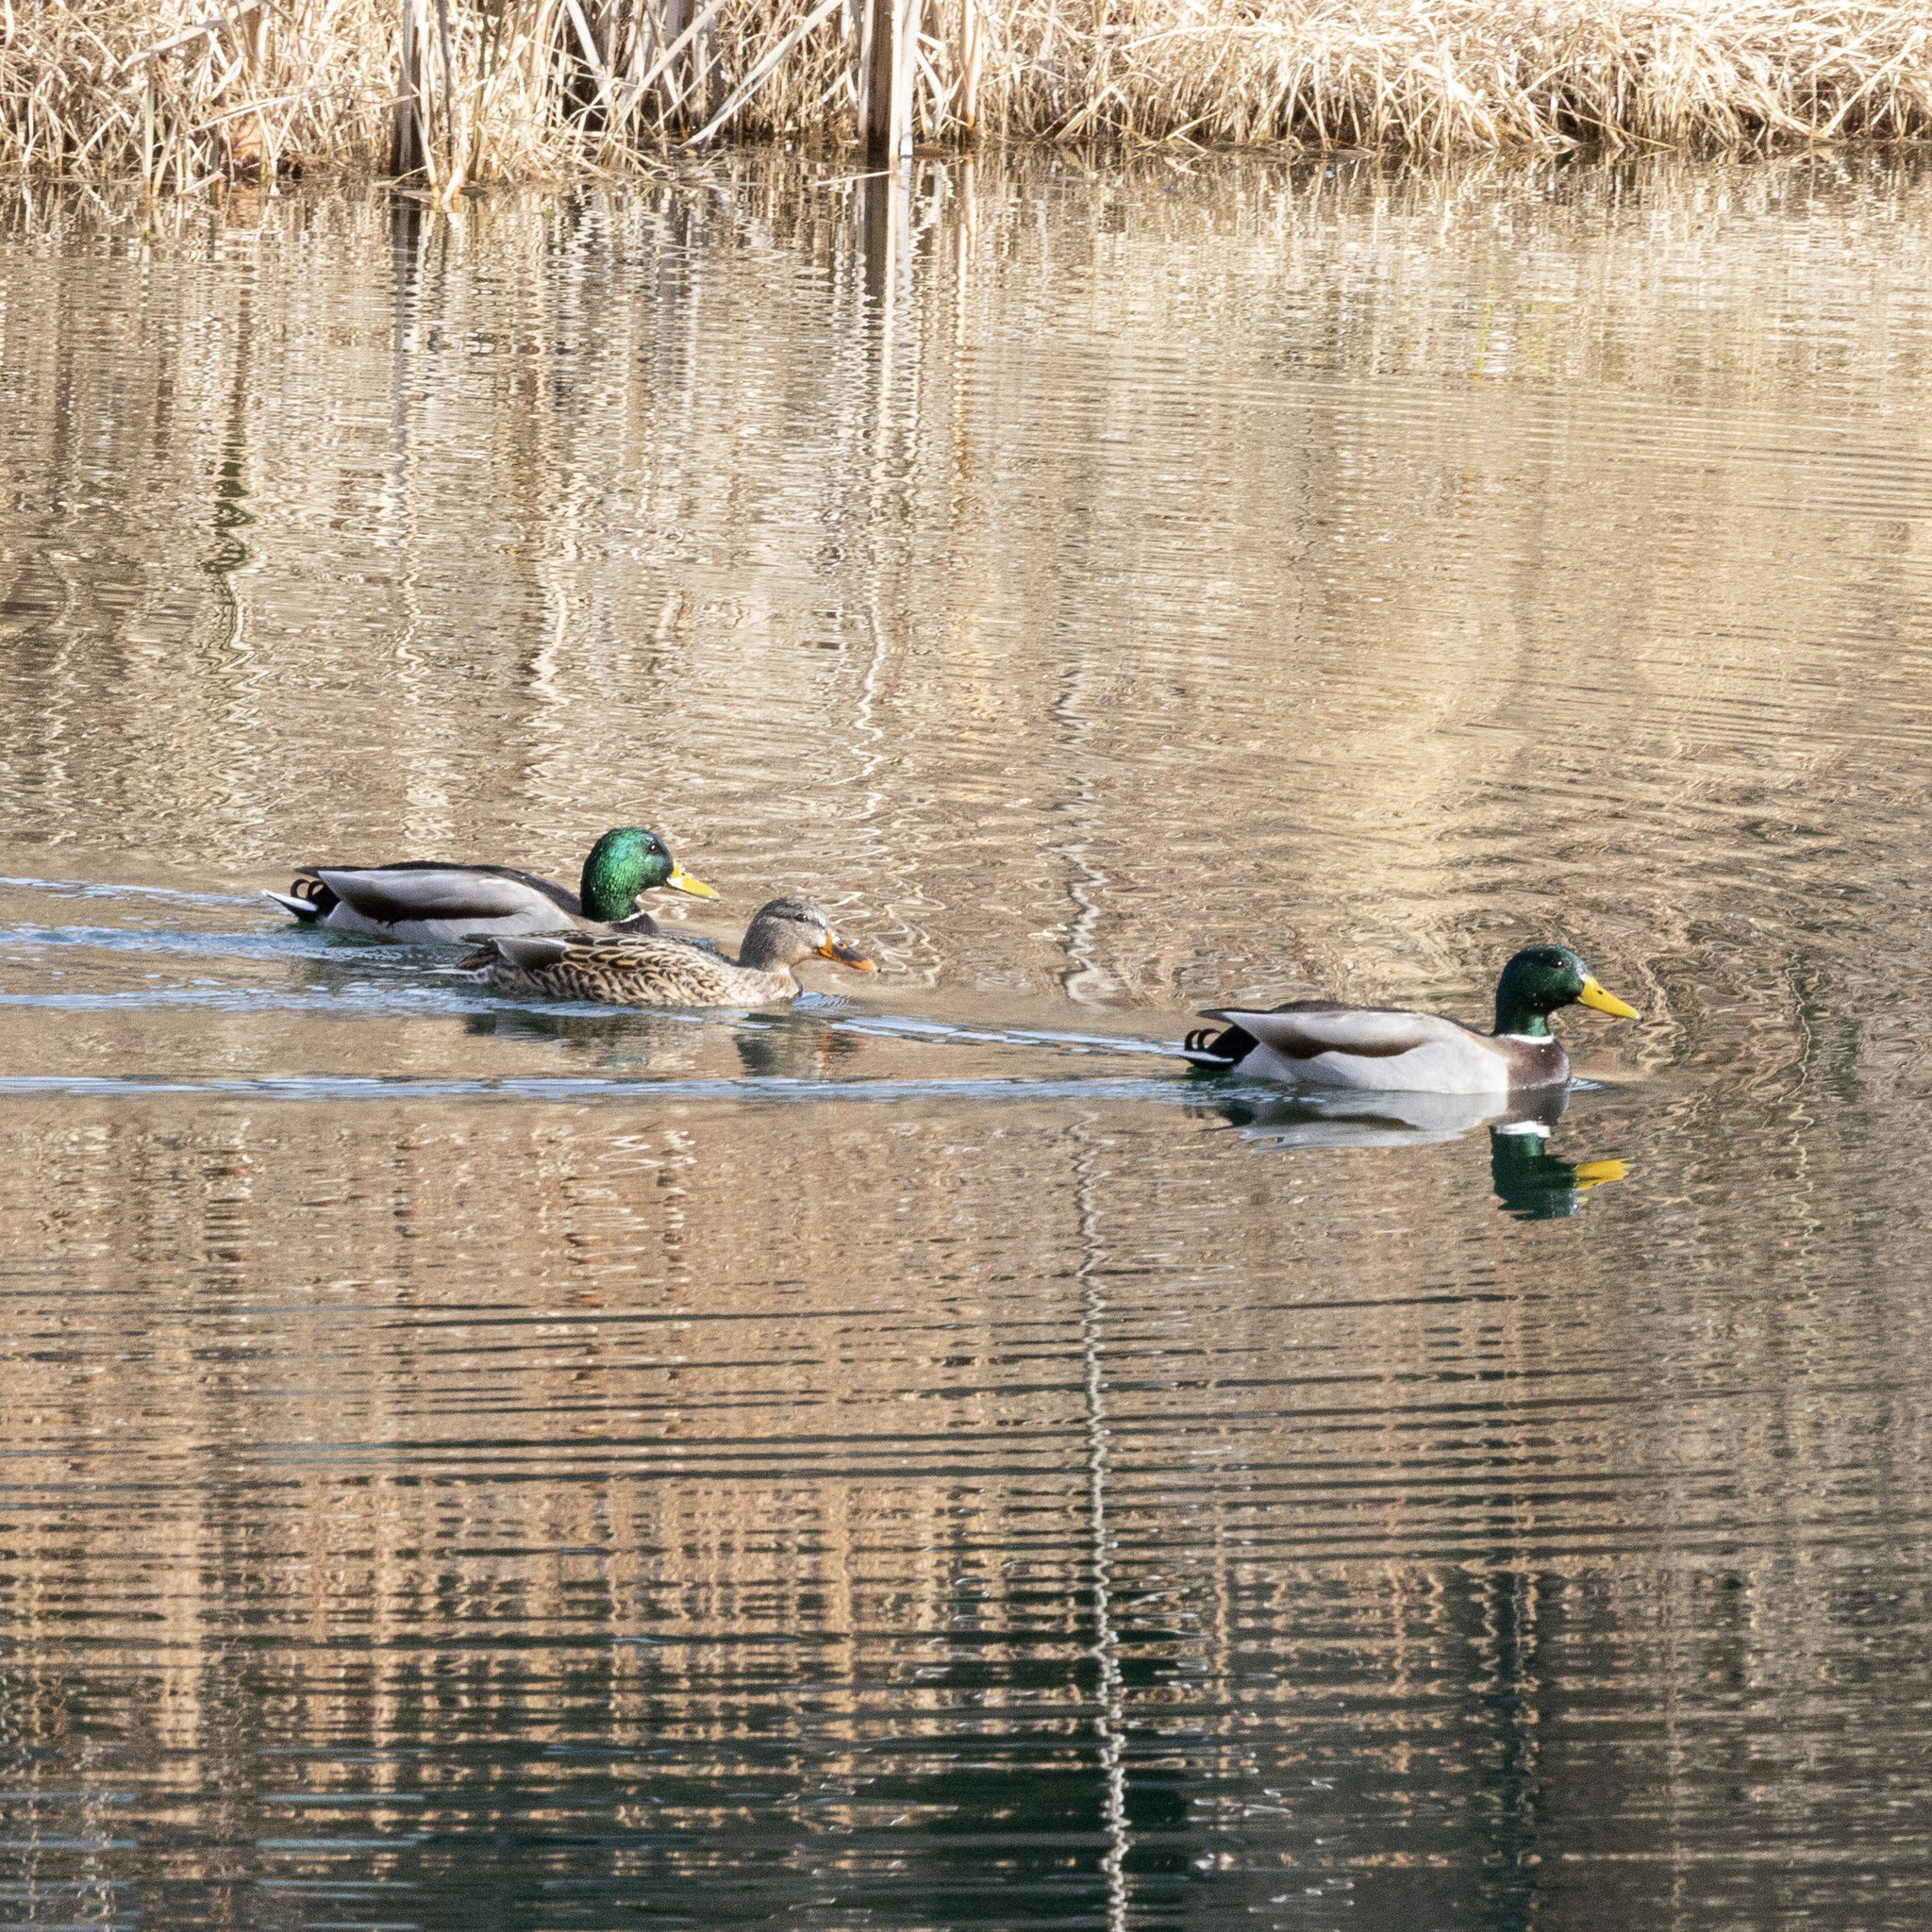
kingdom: Animalia
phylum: Chordata
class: Aves
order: Anseriformes
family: Anatidae
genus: Anas
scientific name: Anas platyrhynchos
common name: Mallard
